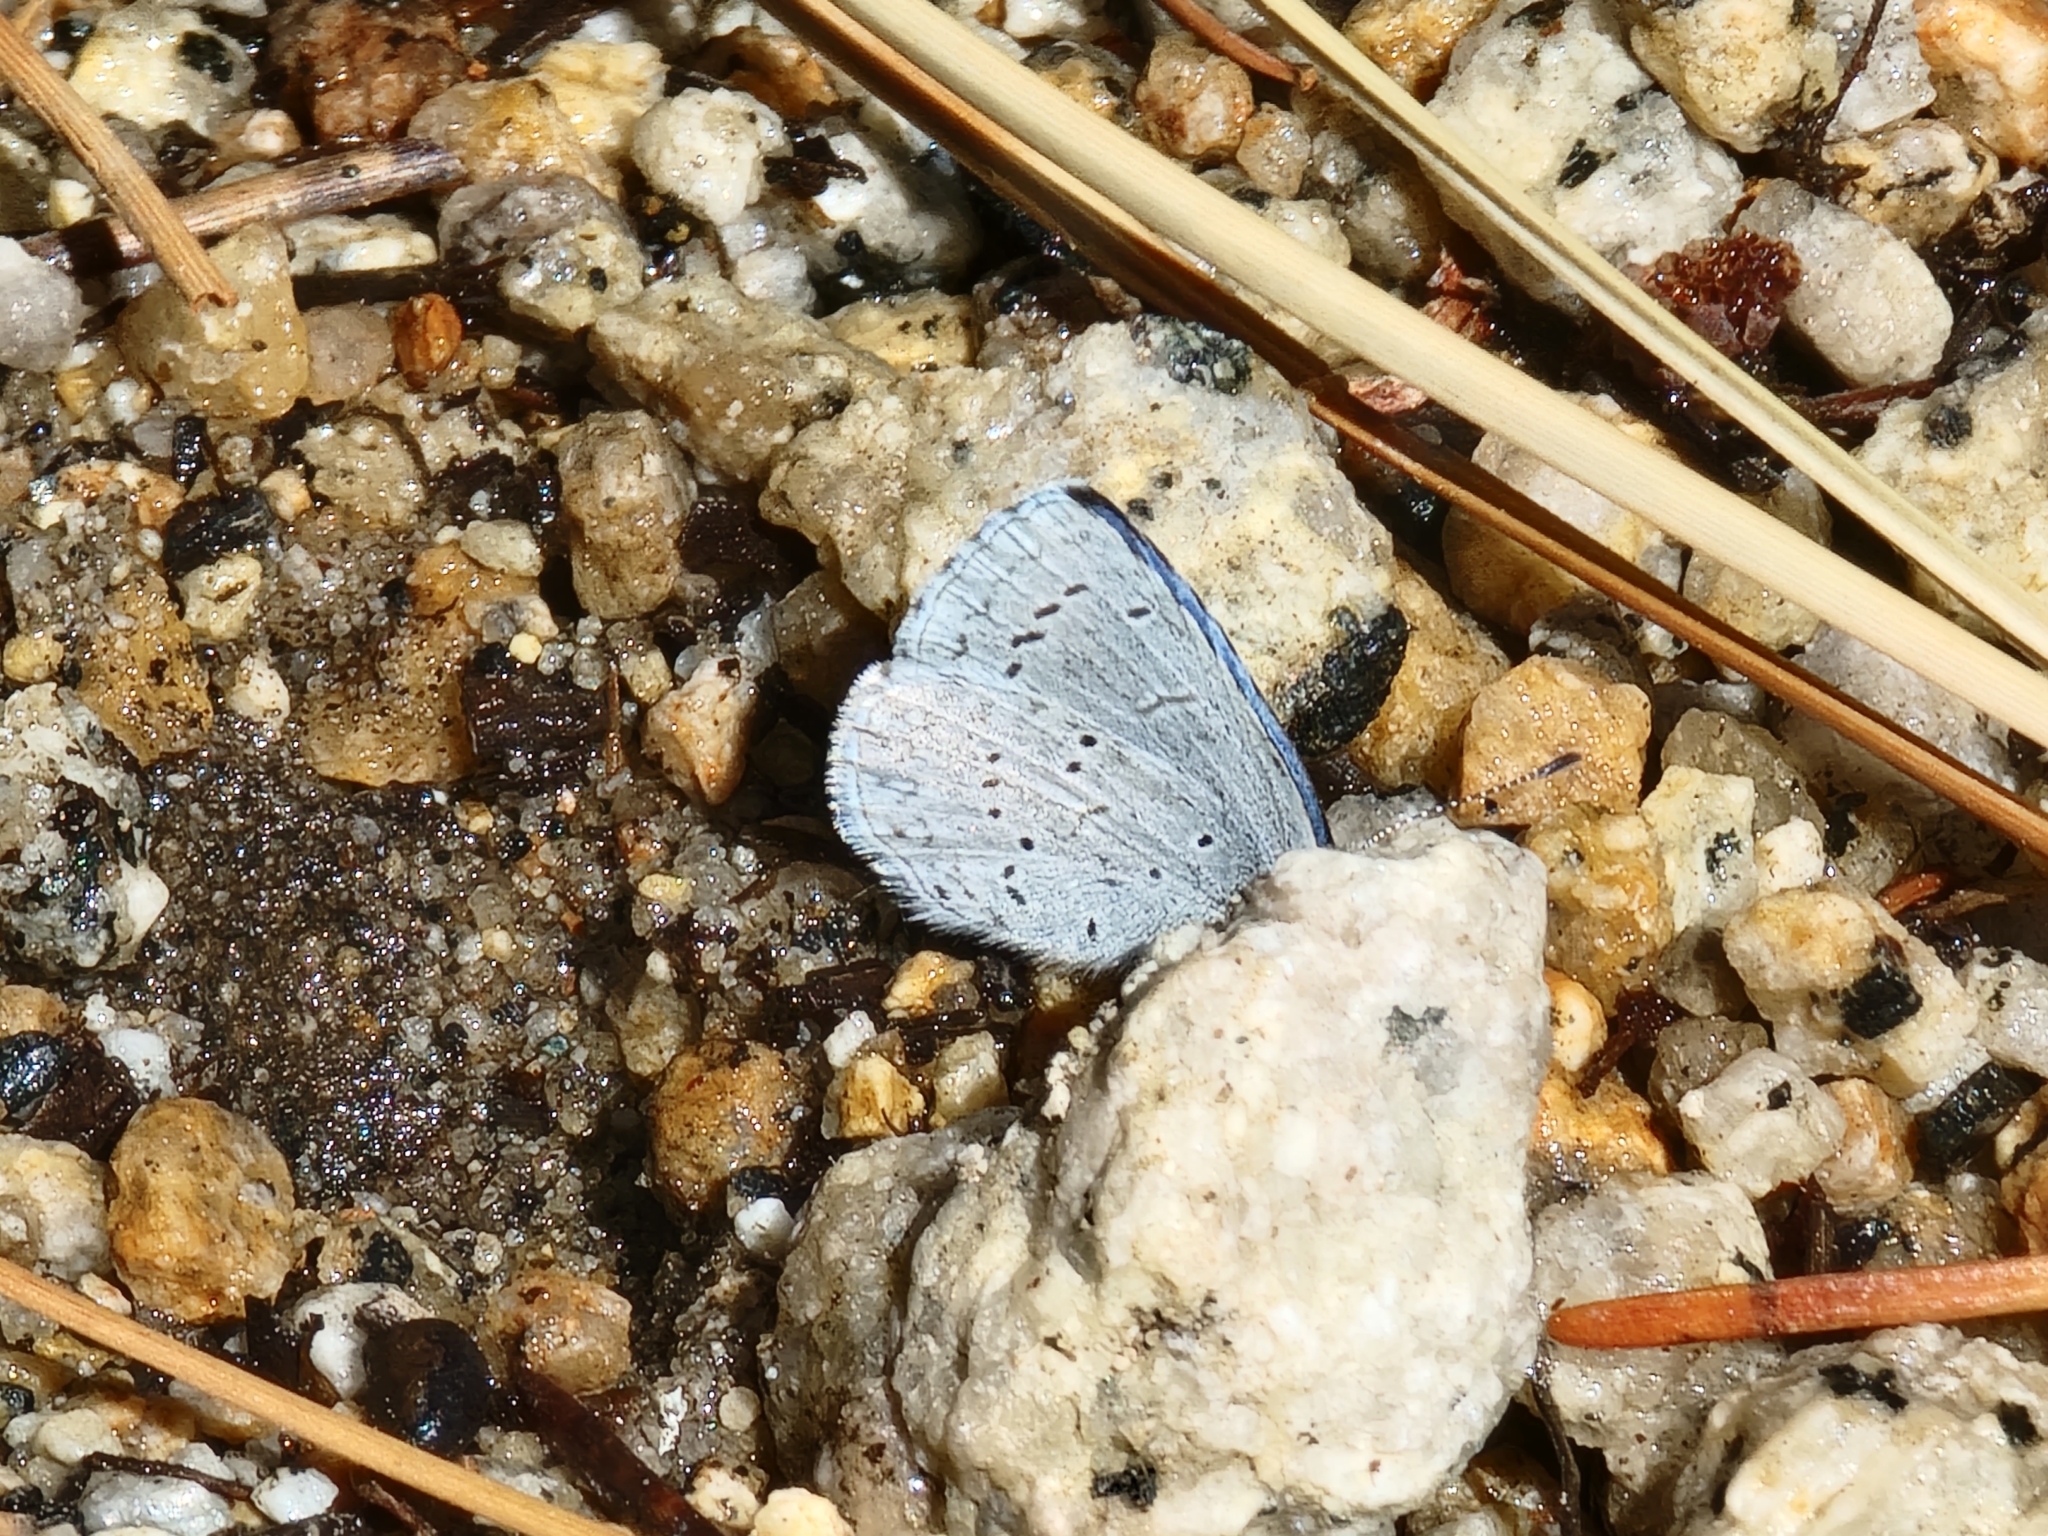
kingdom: Animalia
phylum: Arthropoda
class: Insecta
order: Lepidoptera
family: Lycaenidae
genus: Celastrina
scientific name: Celastrina ladon
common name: Spring azure
